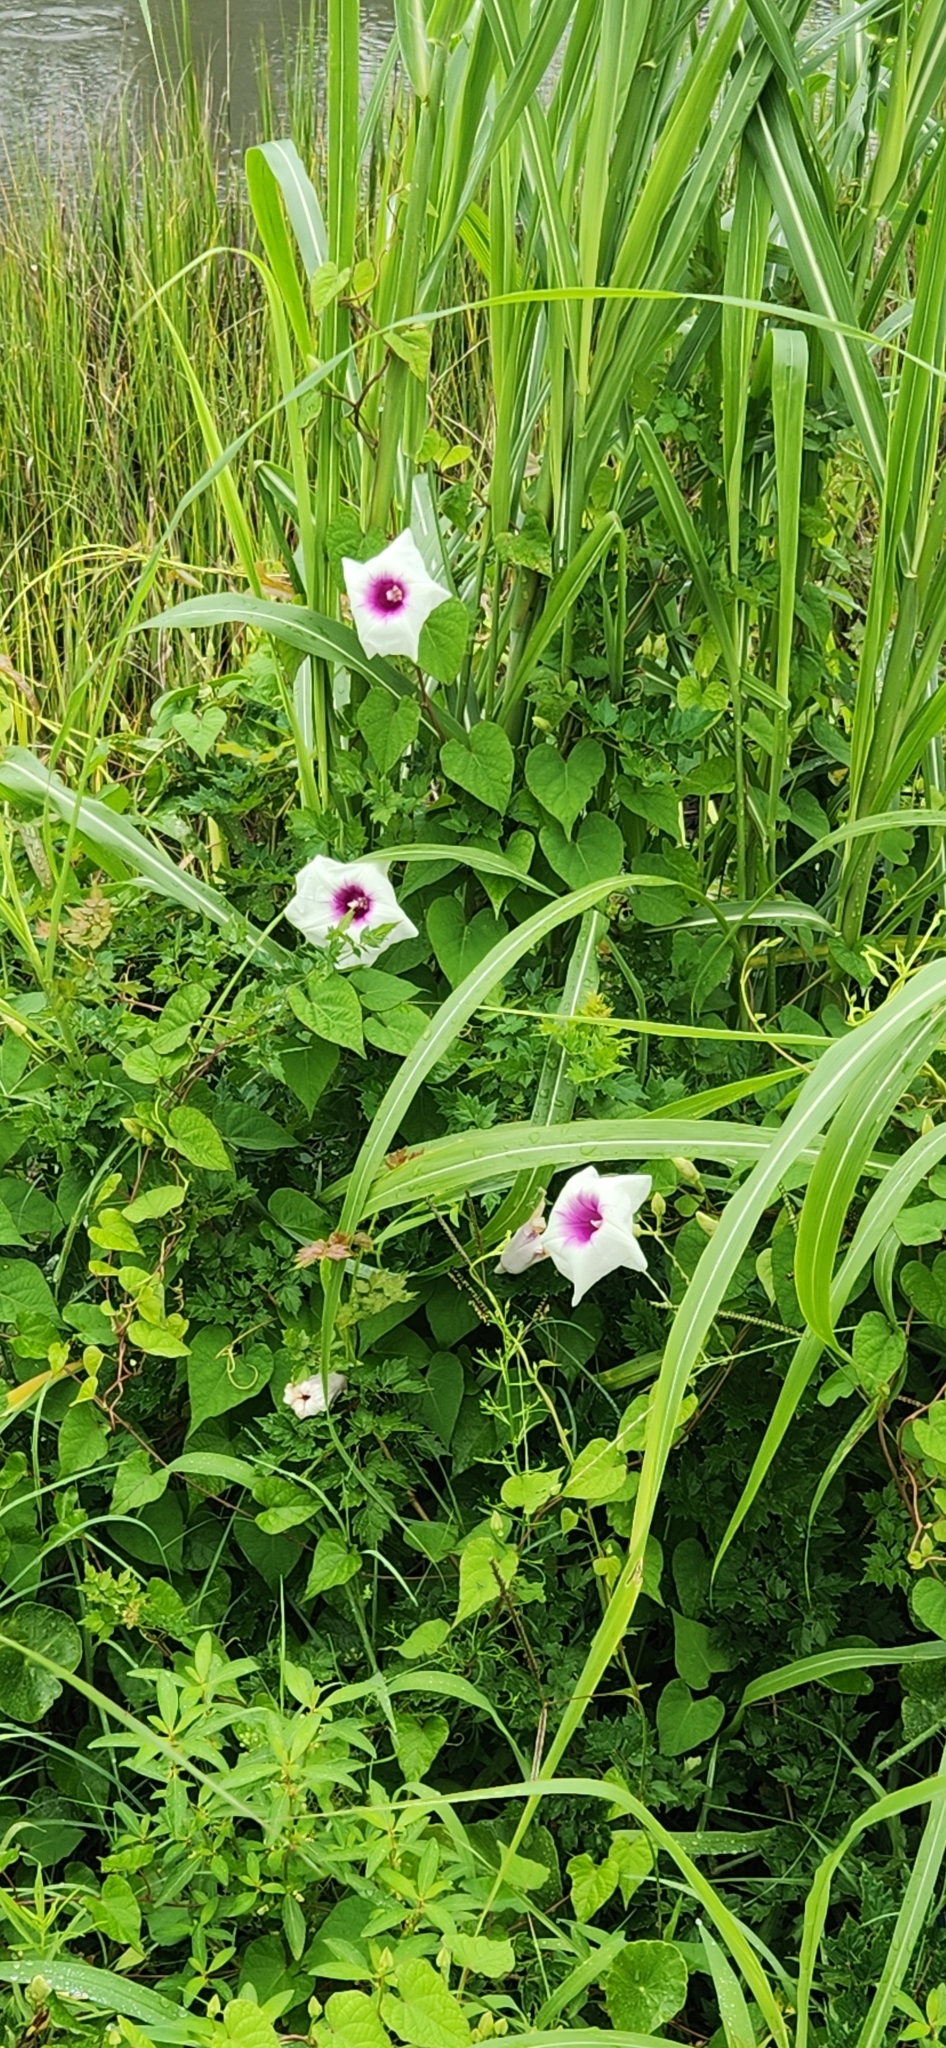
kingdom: Plantae
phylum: Tracheophyta
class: Magnoliopsida
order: Solanales
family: Convolvulaceae
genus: Ipomoea
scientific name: Ipomoea pandurata
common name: Man-of-the-earth
